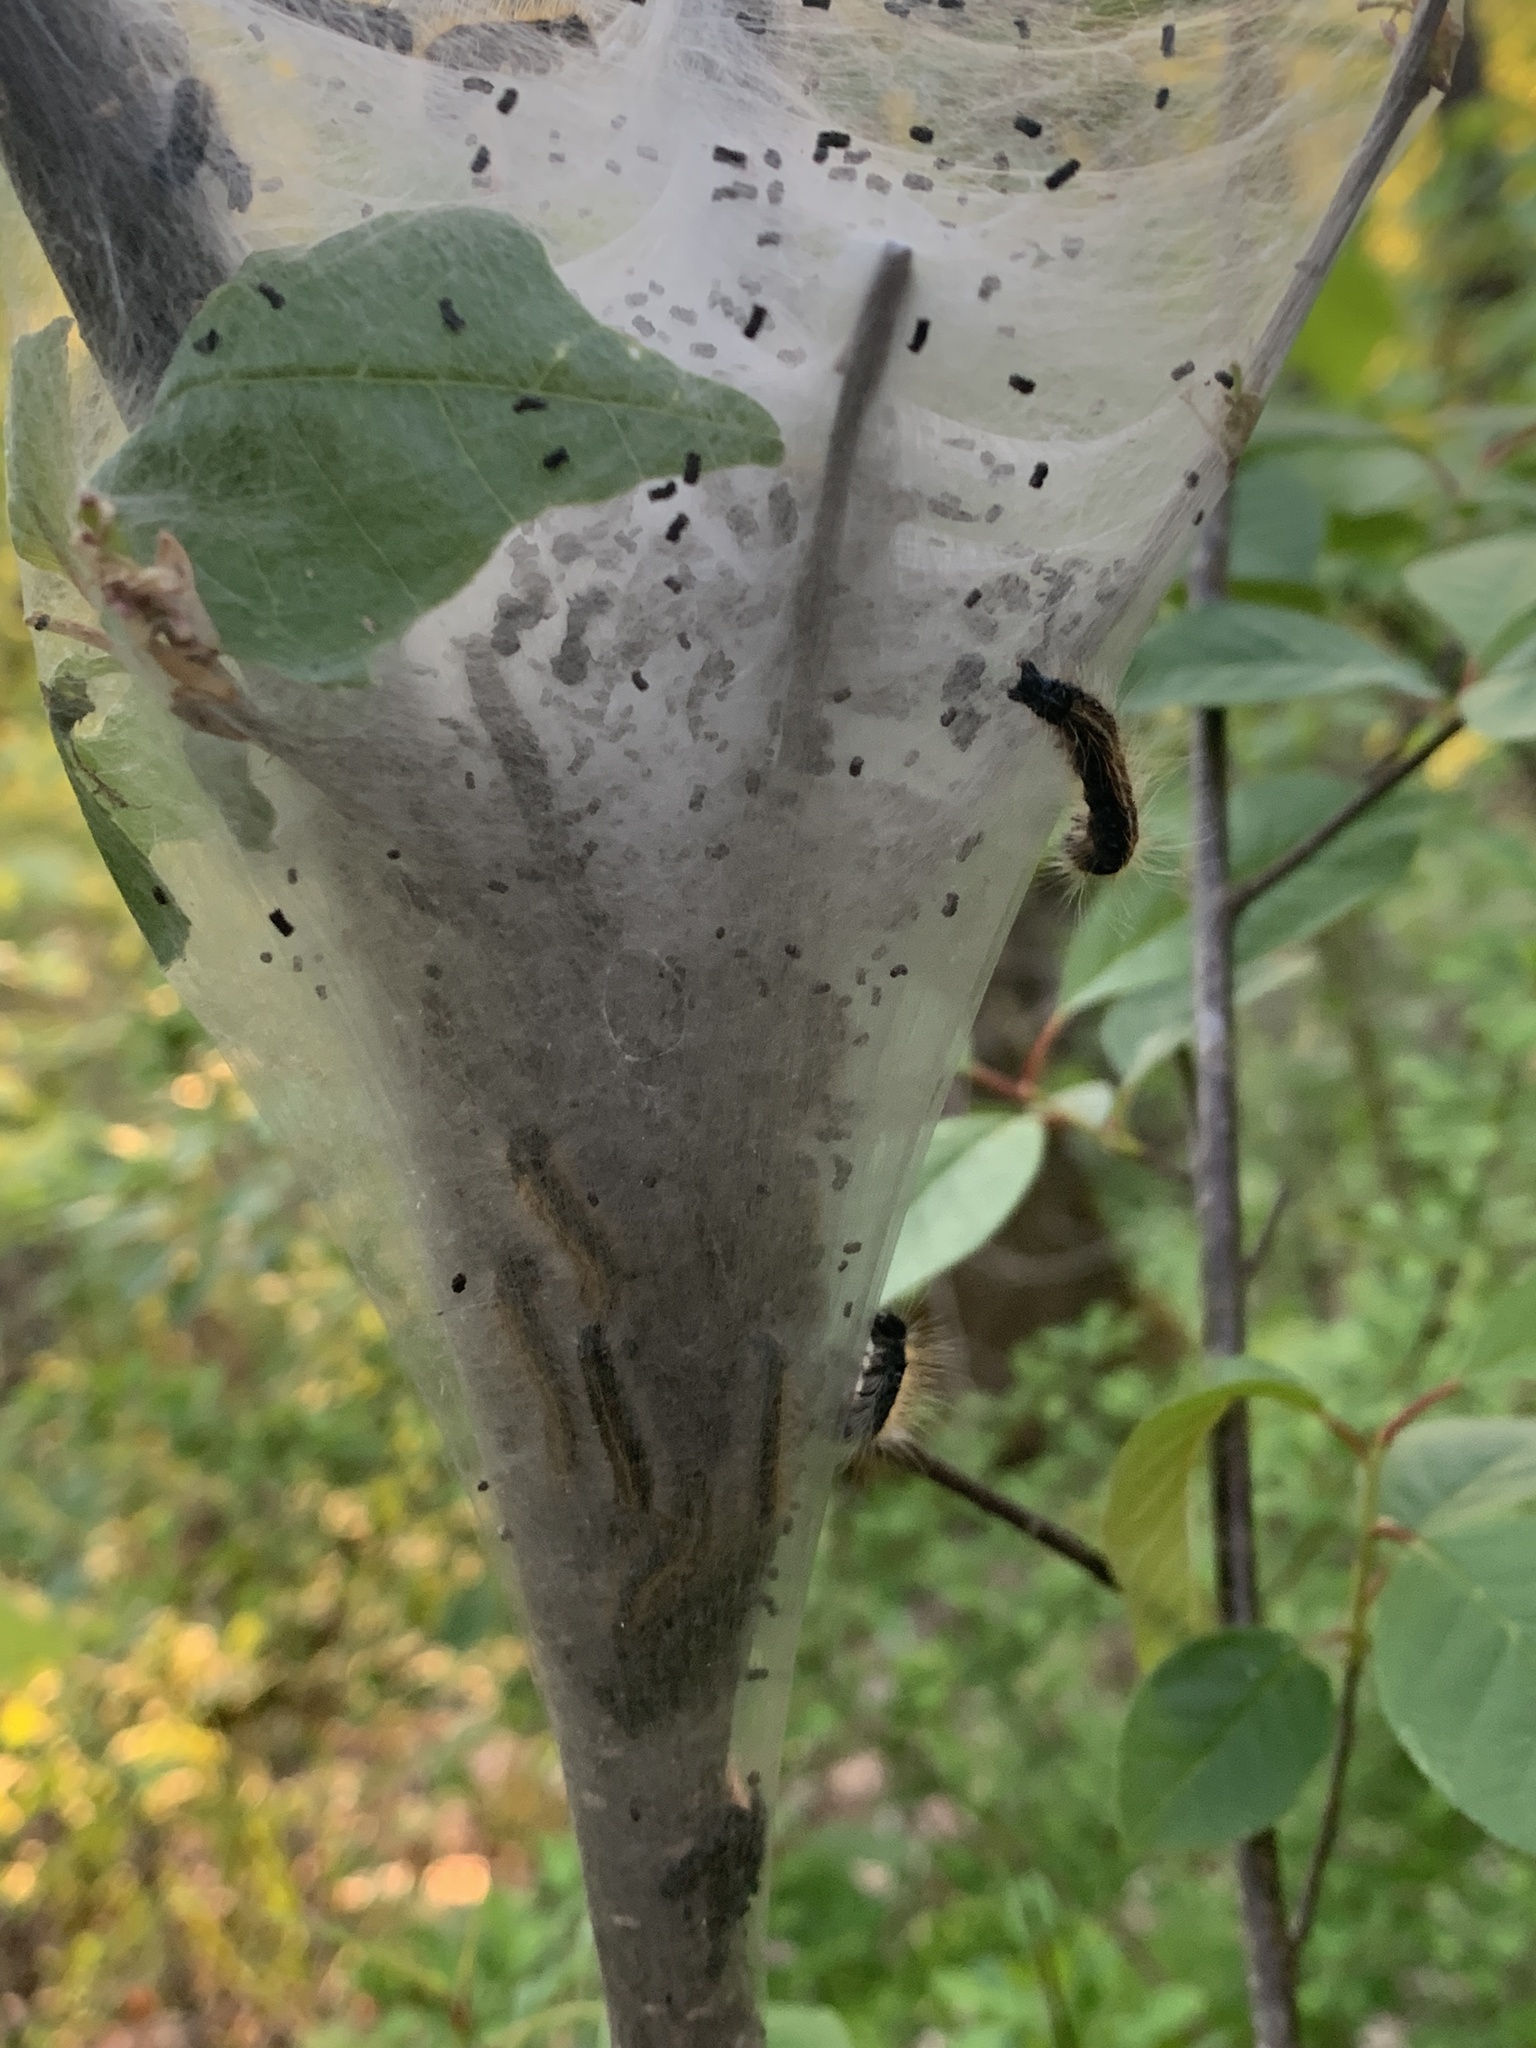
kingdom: Animalia
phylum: Arthropoda
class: Insecta
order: Lepidoptera
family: Lasiocampidae
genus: Malacosoma
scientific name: Malacosoma americana
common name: Eastern tent caterpillar moth
